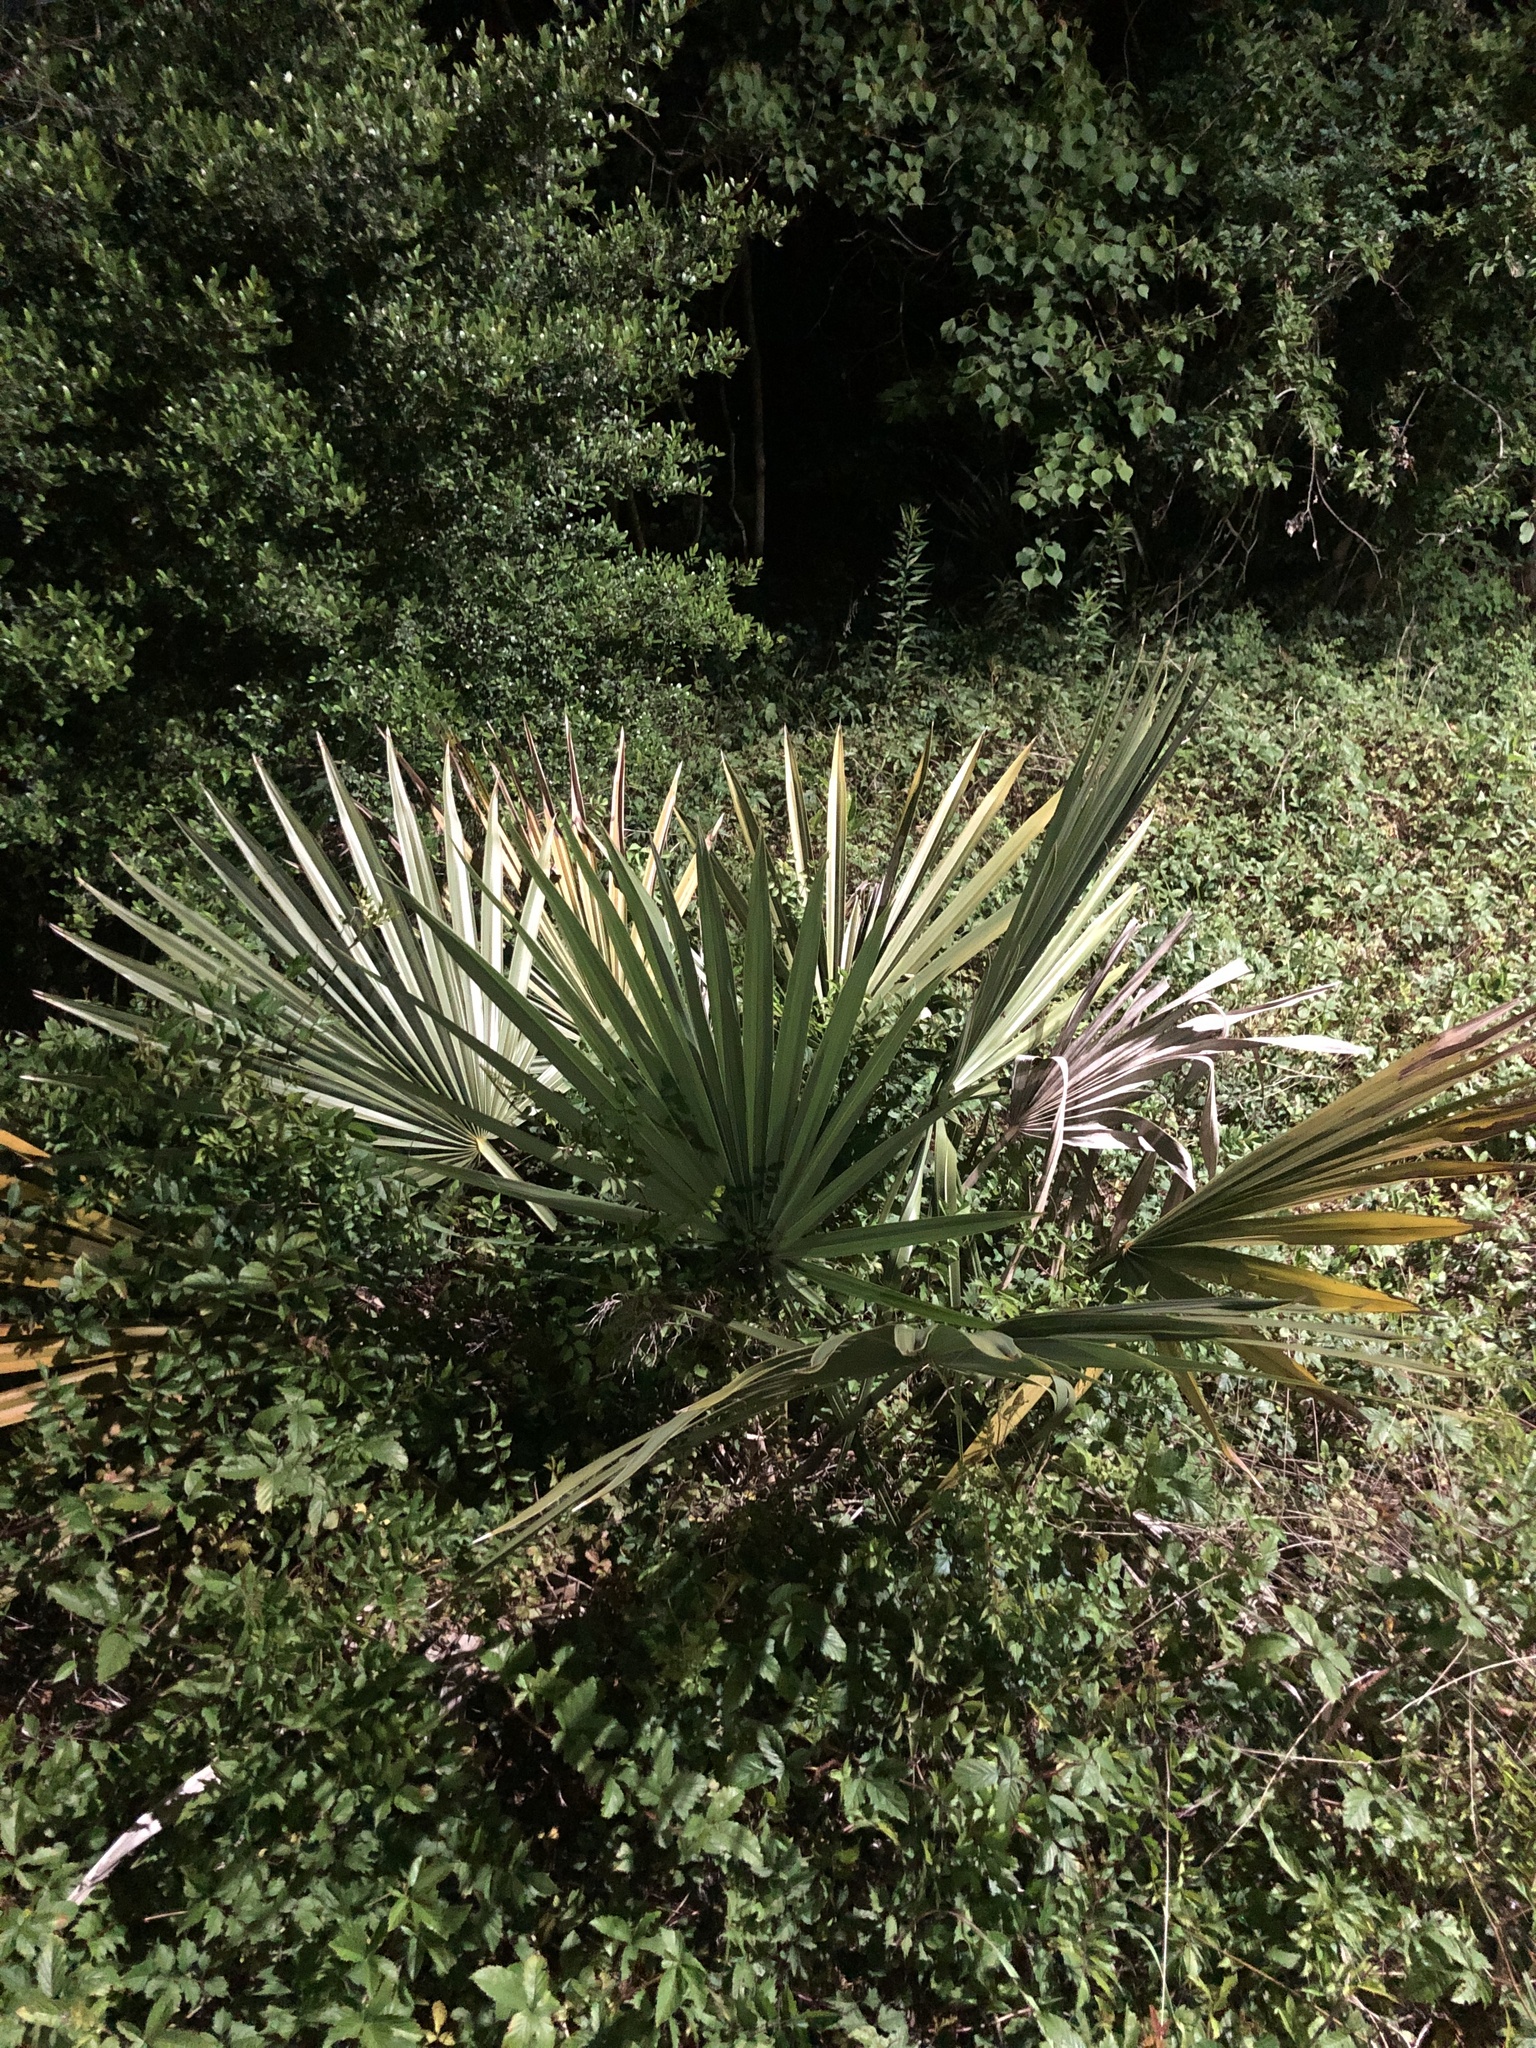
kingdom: Plantae
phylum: Tracheophyta
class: Liliopsida
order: Arecales
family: Arecaceae
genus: Sabal
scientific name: Sabal minor
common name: Dwarf palmetto
